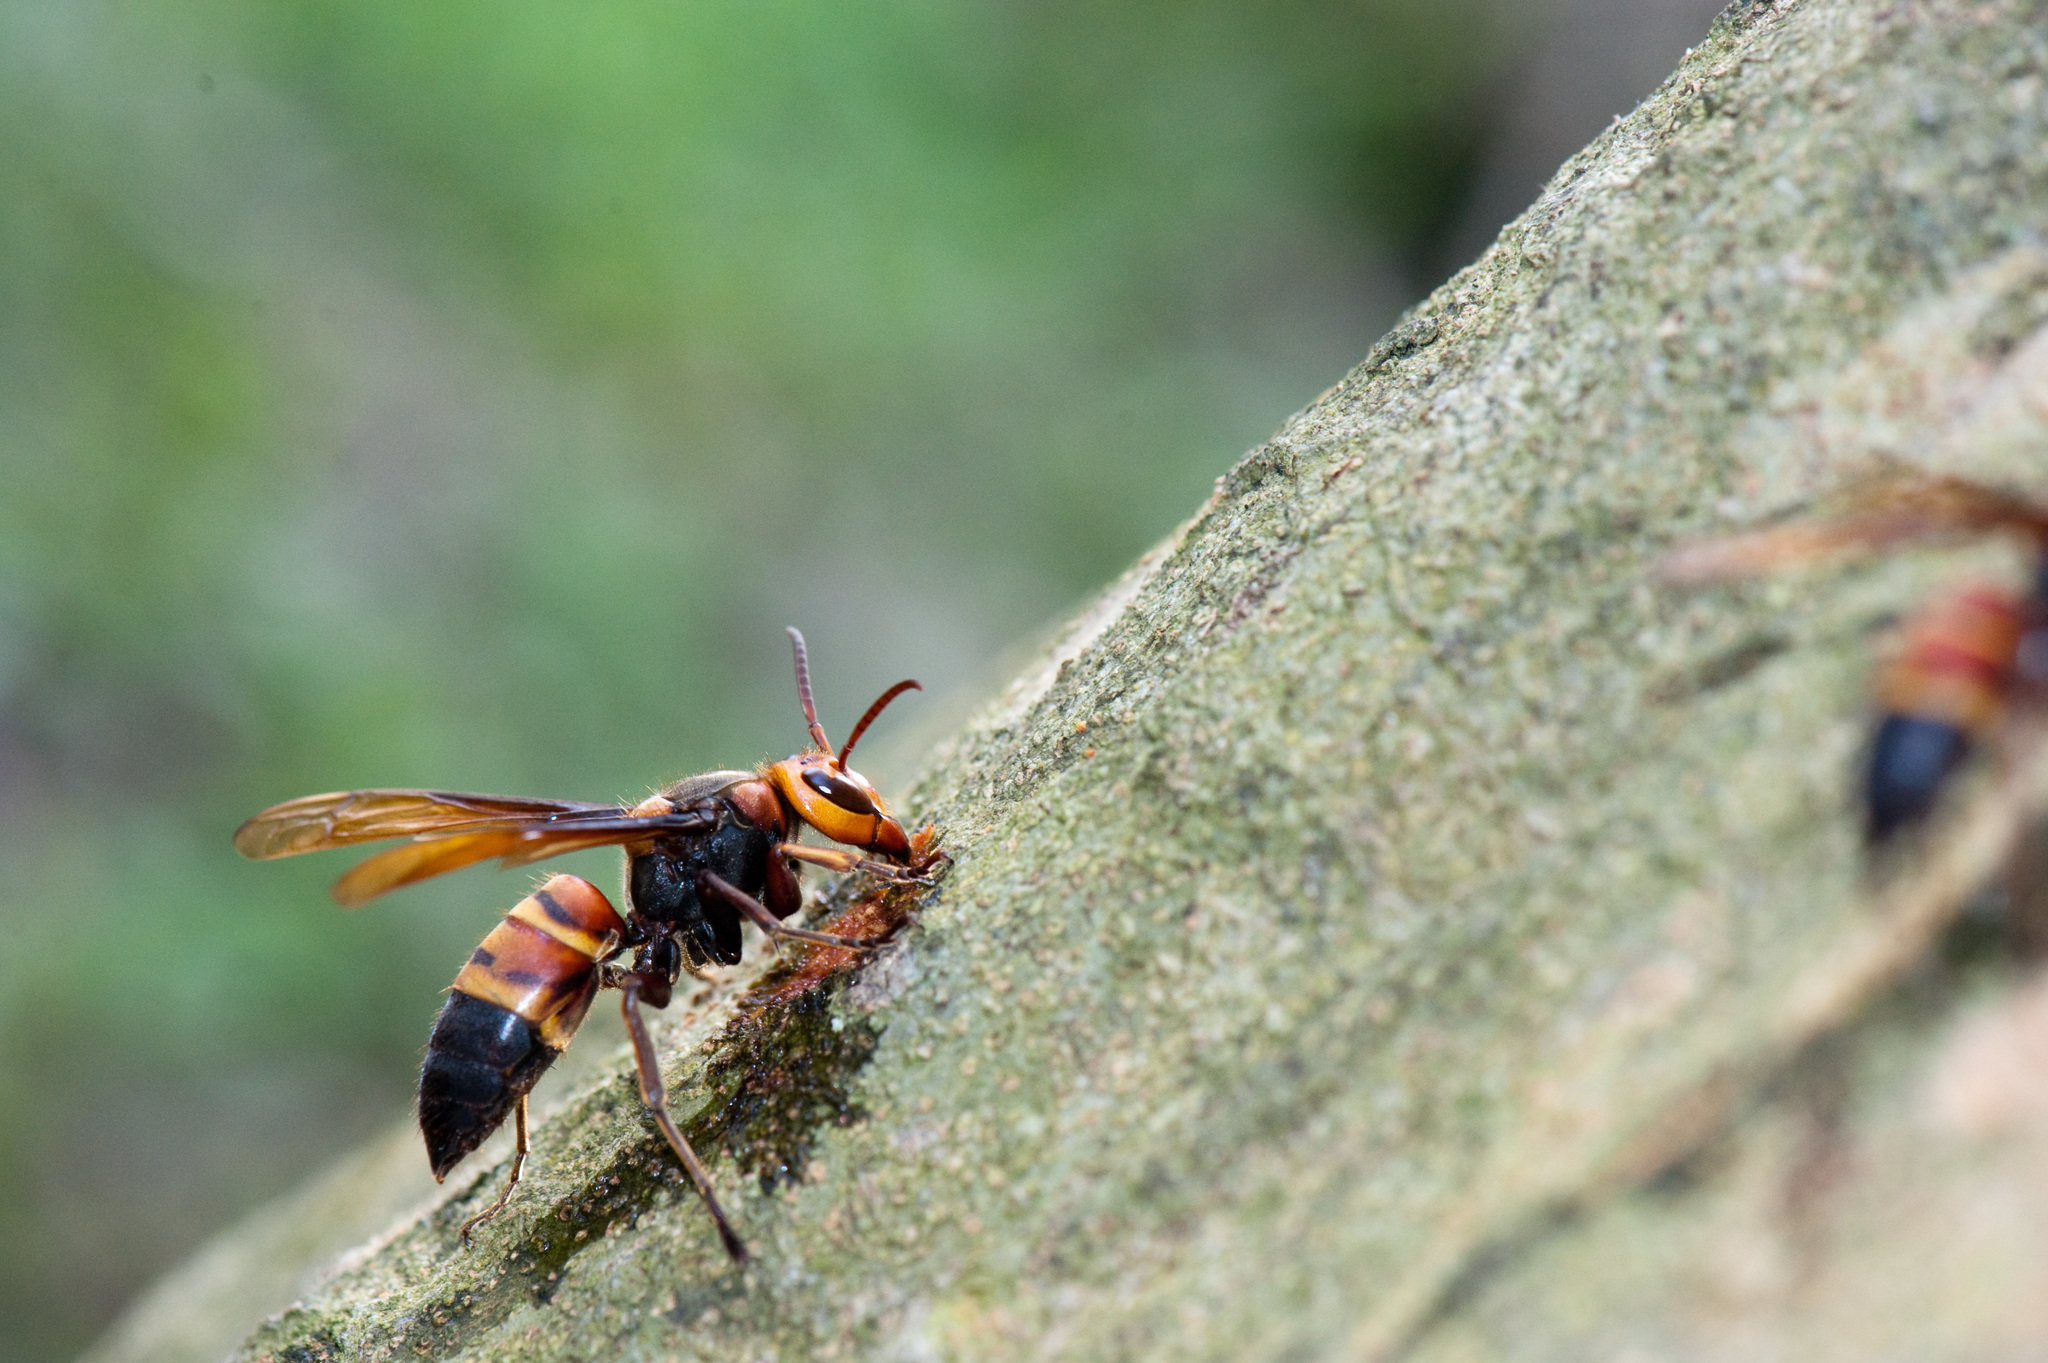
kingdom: Animalia
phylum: Arthropoda
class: Insecta
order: Hymenoptera
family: Vespidae
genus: Vespa
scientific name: Vespa ducalis
